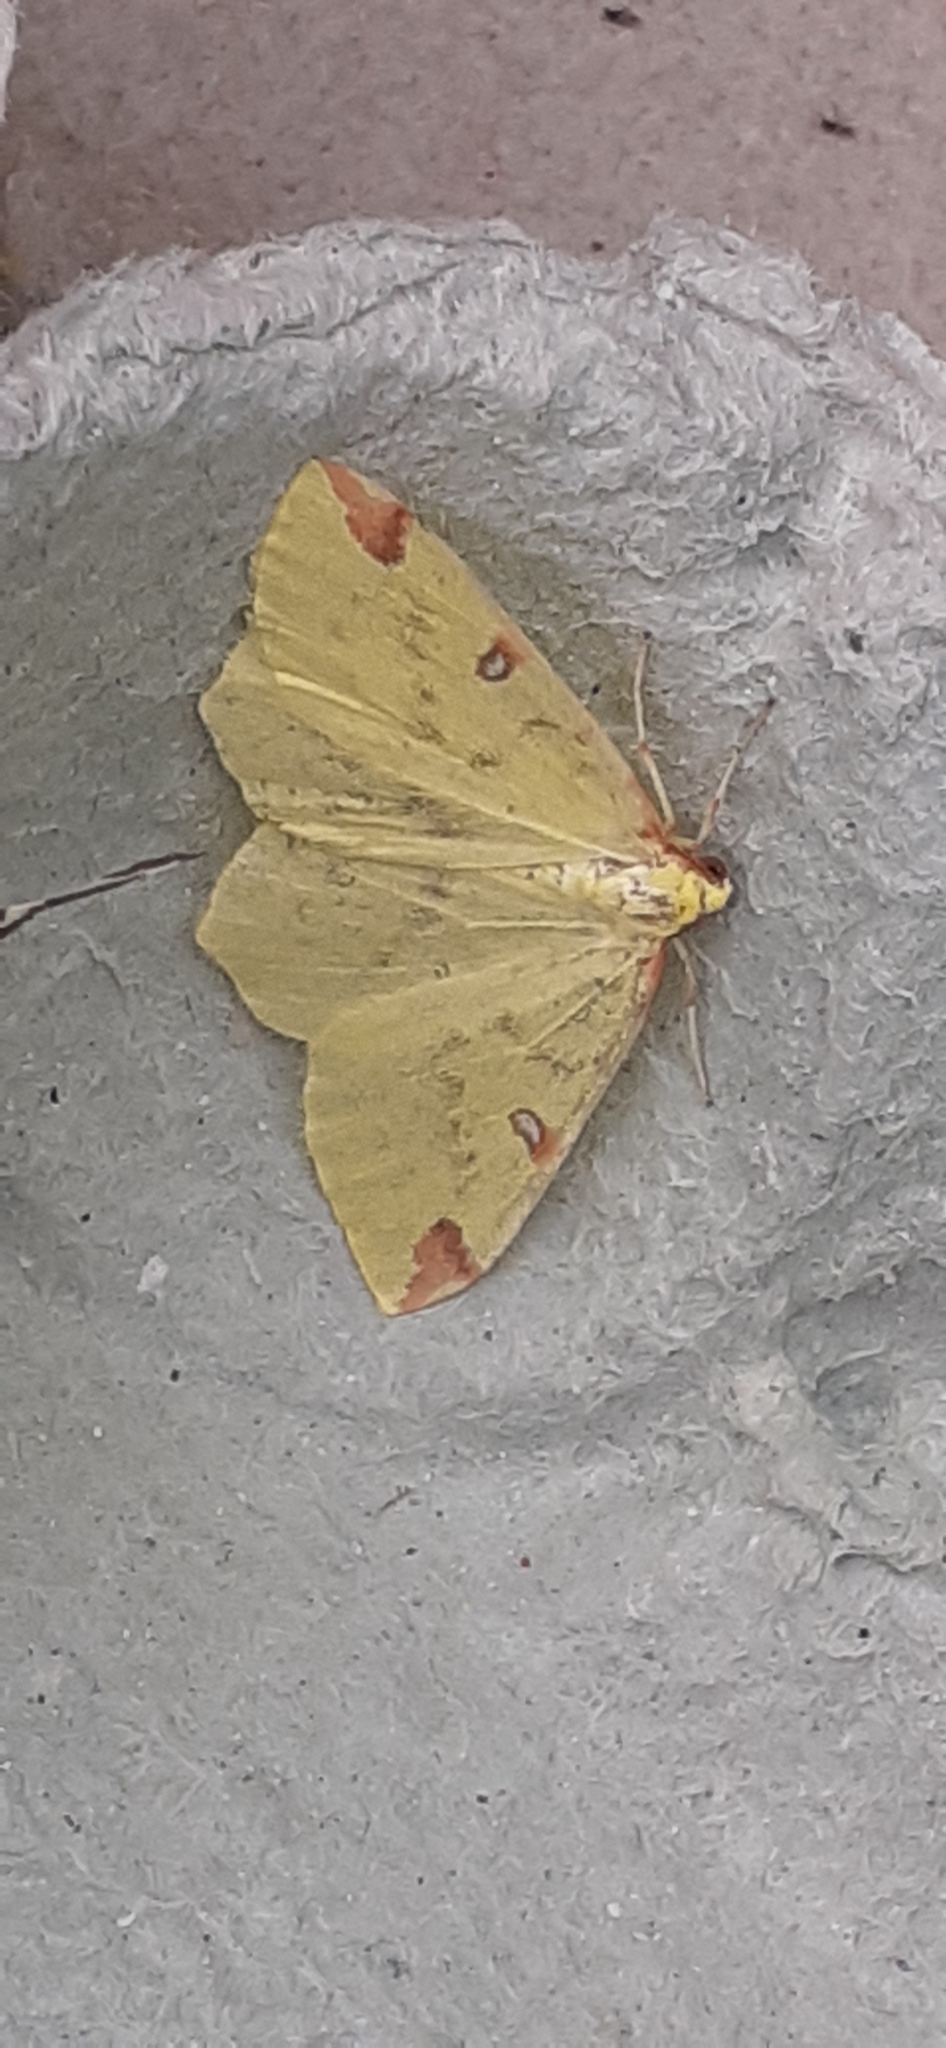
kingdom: Animalia
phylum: Arthropoda
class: Insecta
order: Lepidoptera
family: Geometridae
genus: Opisthograptis
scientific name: Opisthograptis luteolata
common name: Brimstone moth
